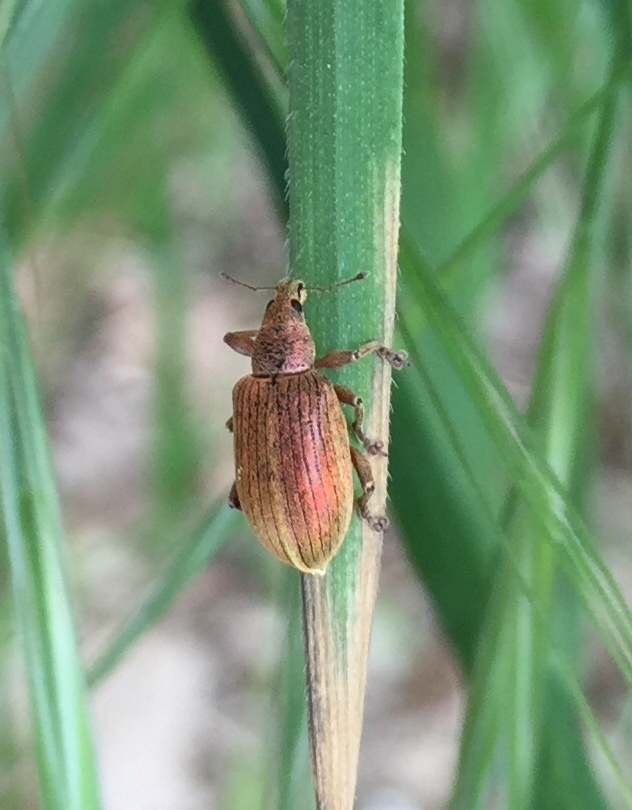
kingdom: Animalia
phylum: Arthropoda
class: Insecta
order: Coleoptera
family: Curculionidae
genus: Polydrusus
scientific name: Polydrusus cocciferae
